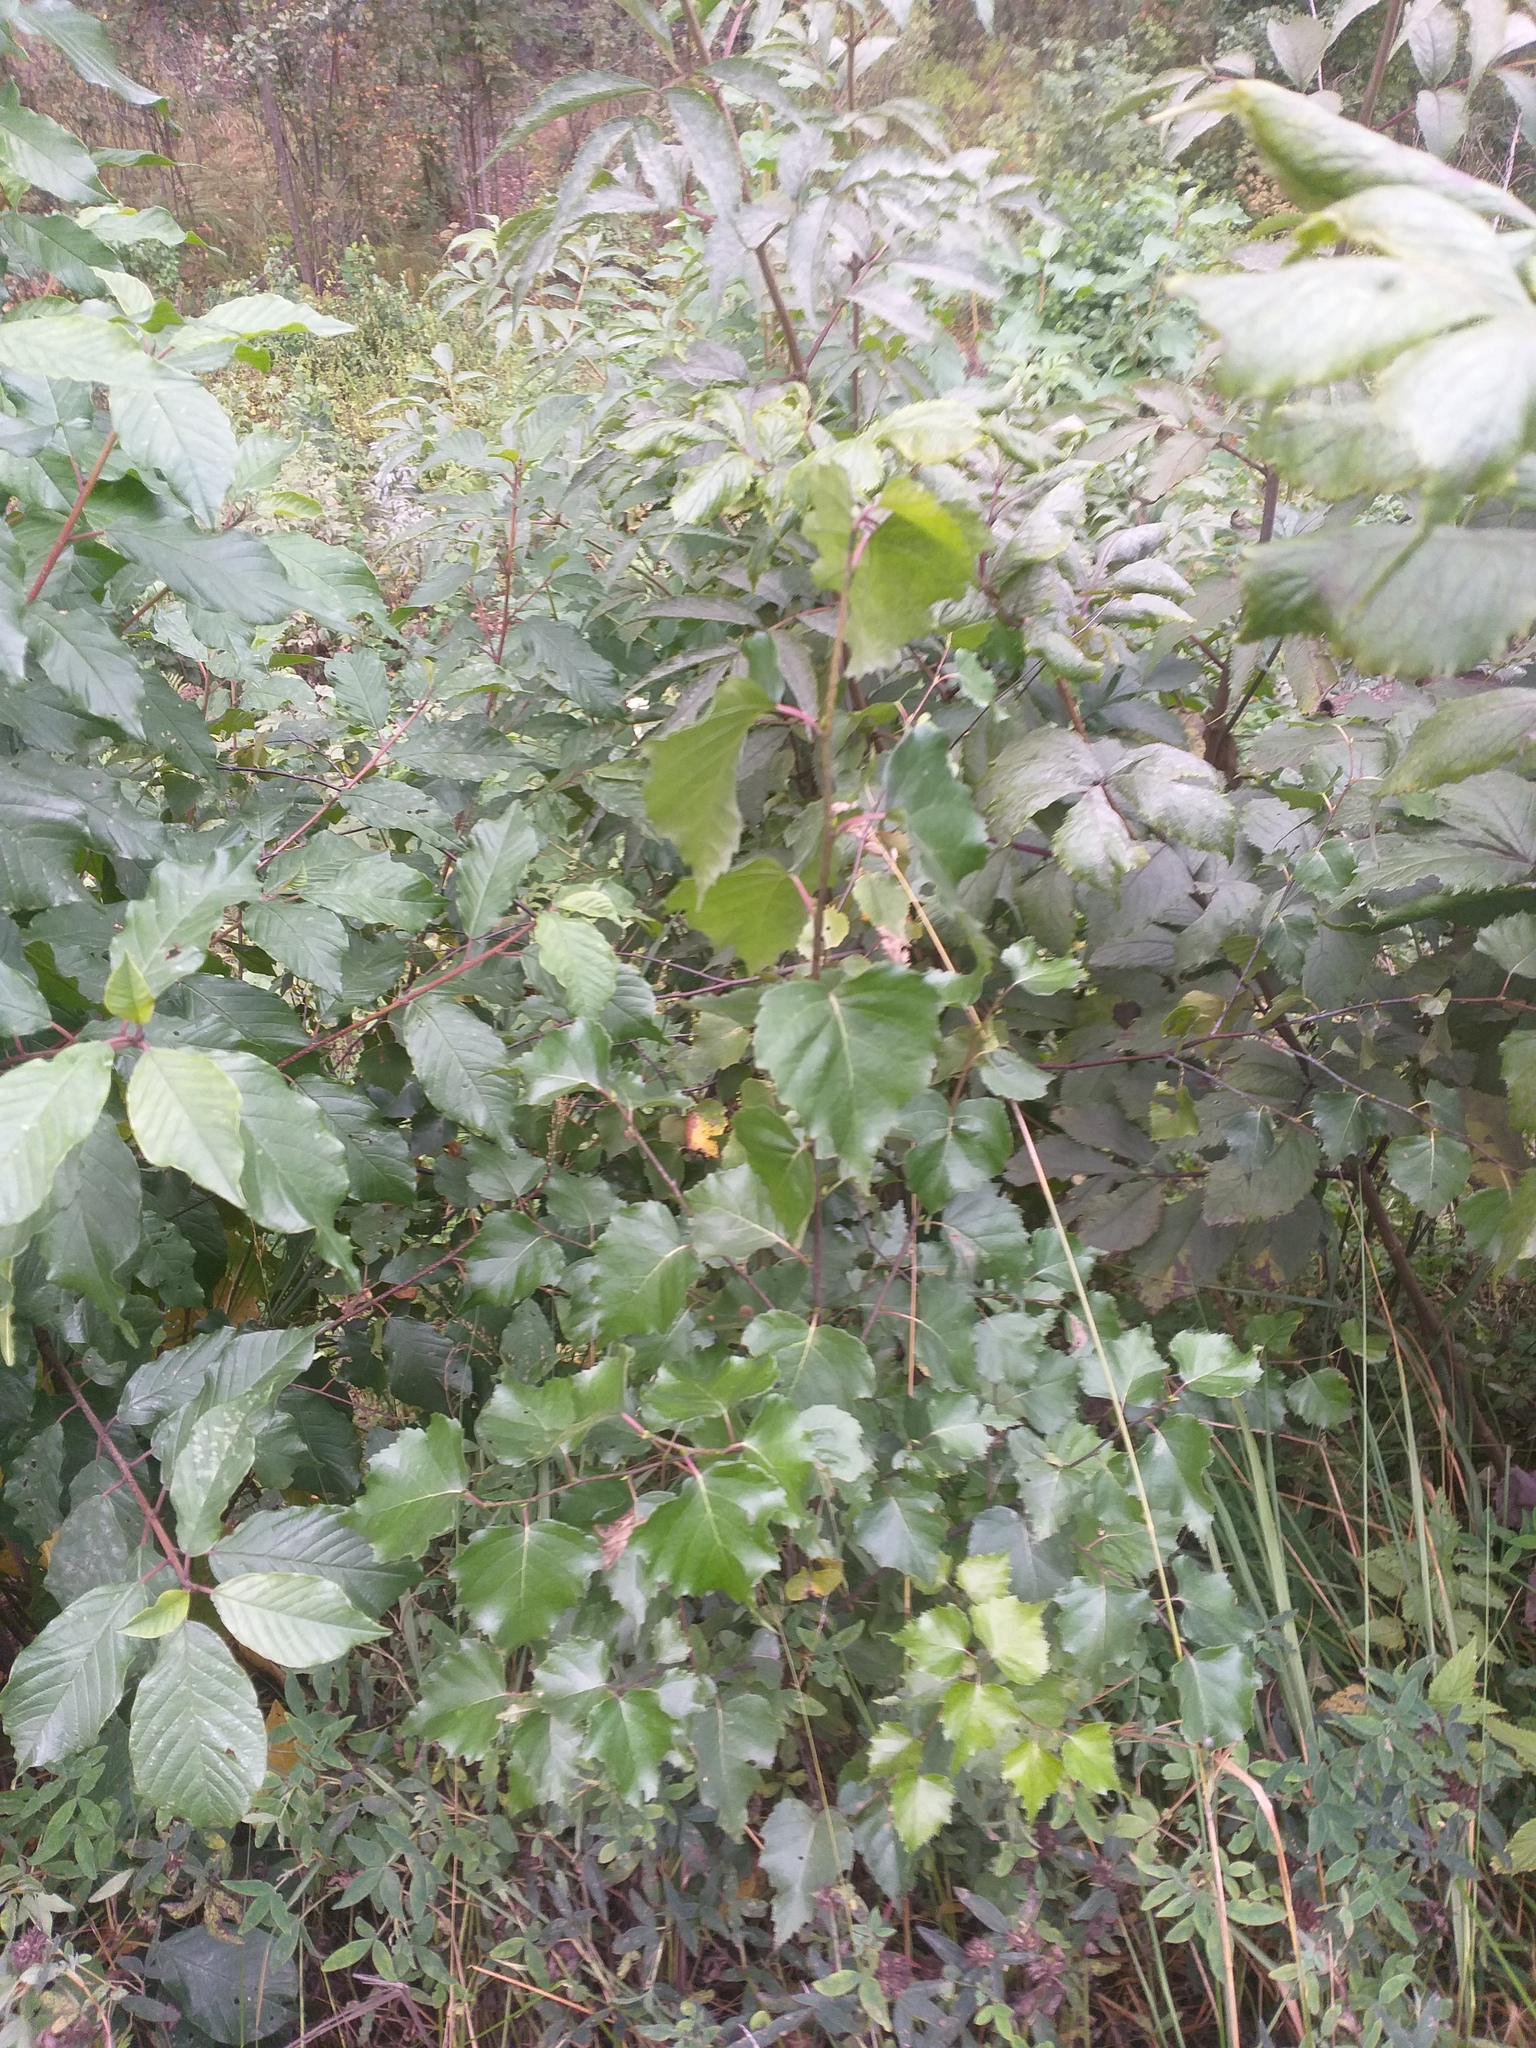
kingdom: Plantae
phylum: Tracheophyta
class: Magnoliopsida
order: Fagales
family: Betulaceae
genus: Betula
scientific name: Betula pendula
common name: Silver birch
